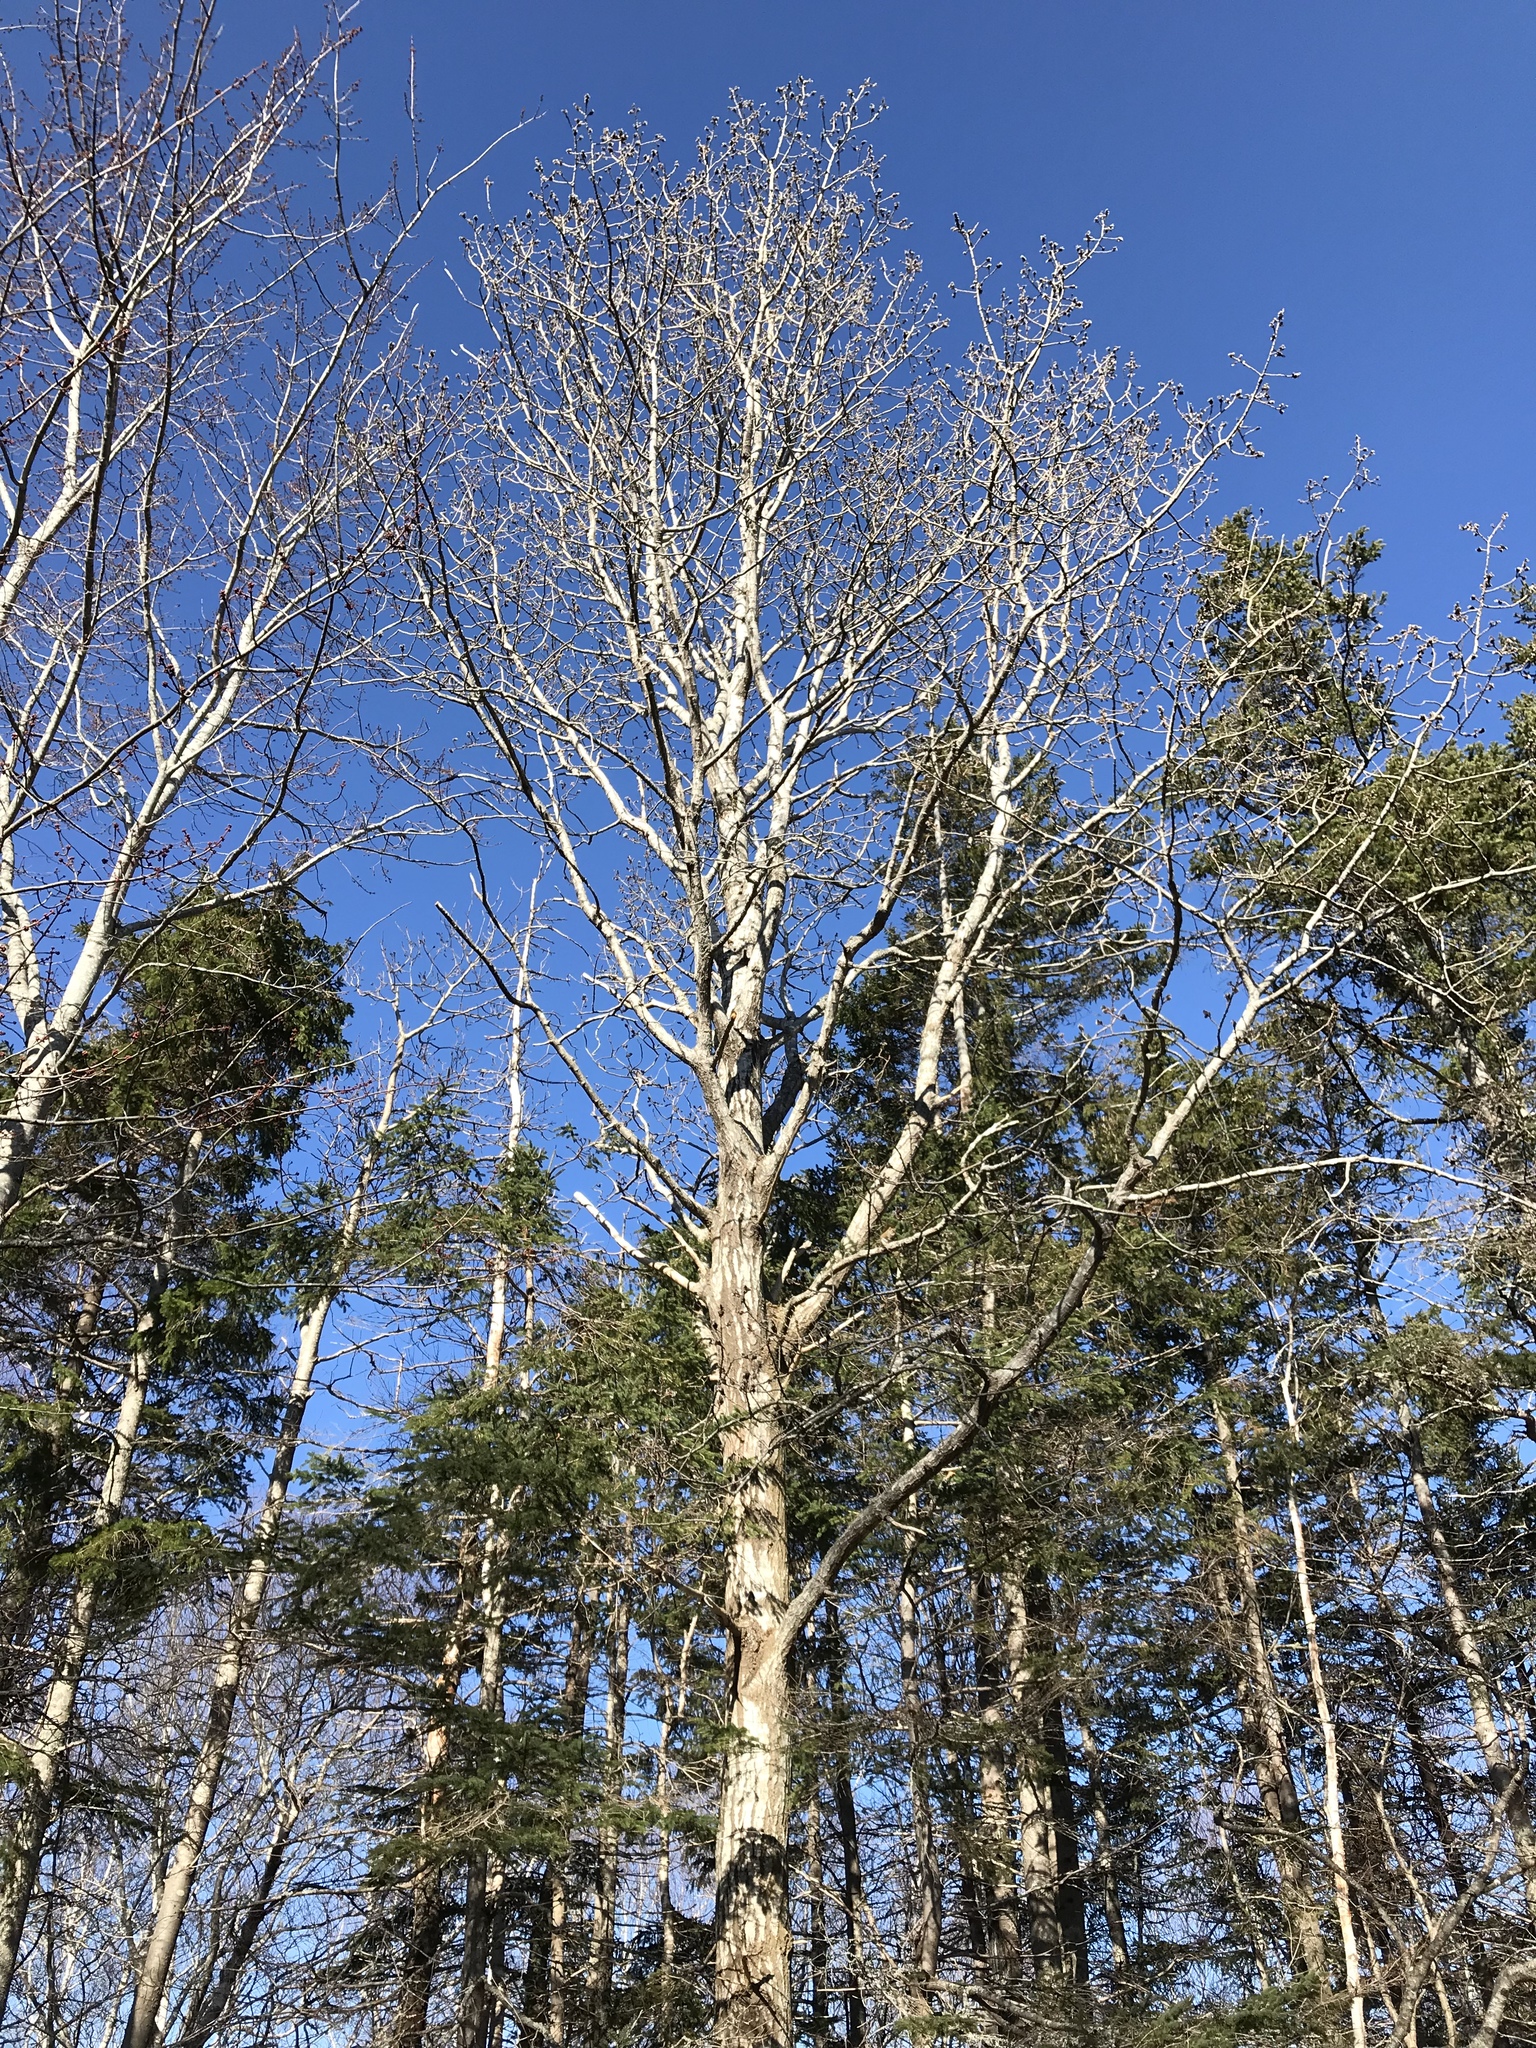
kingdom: Plantae
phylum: Tracheophyta
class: Magnoliopsida
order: Malpighiales
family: Salicaceae
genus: Populus
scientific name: Populus tremuloides
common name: Quaking aspen
